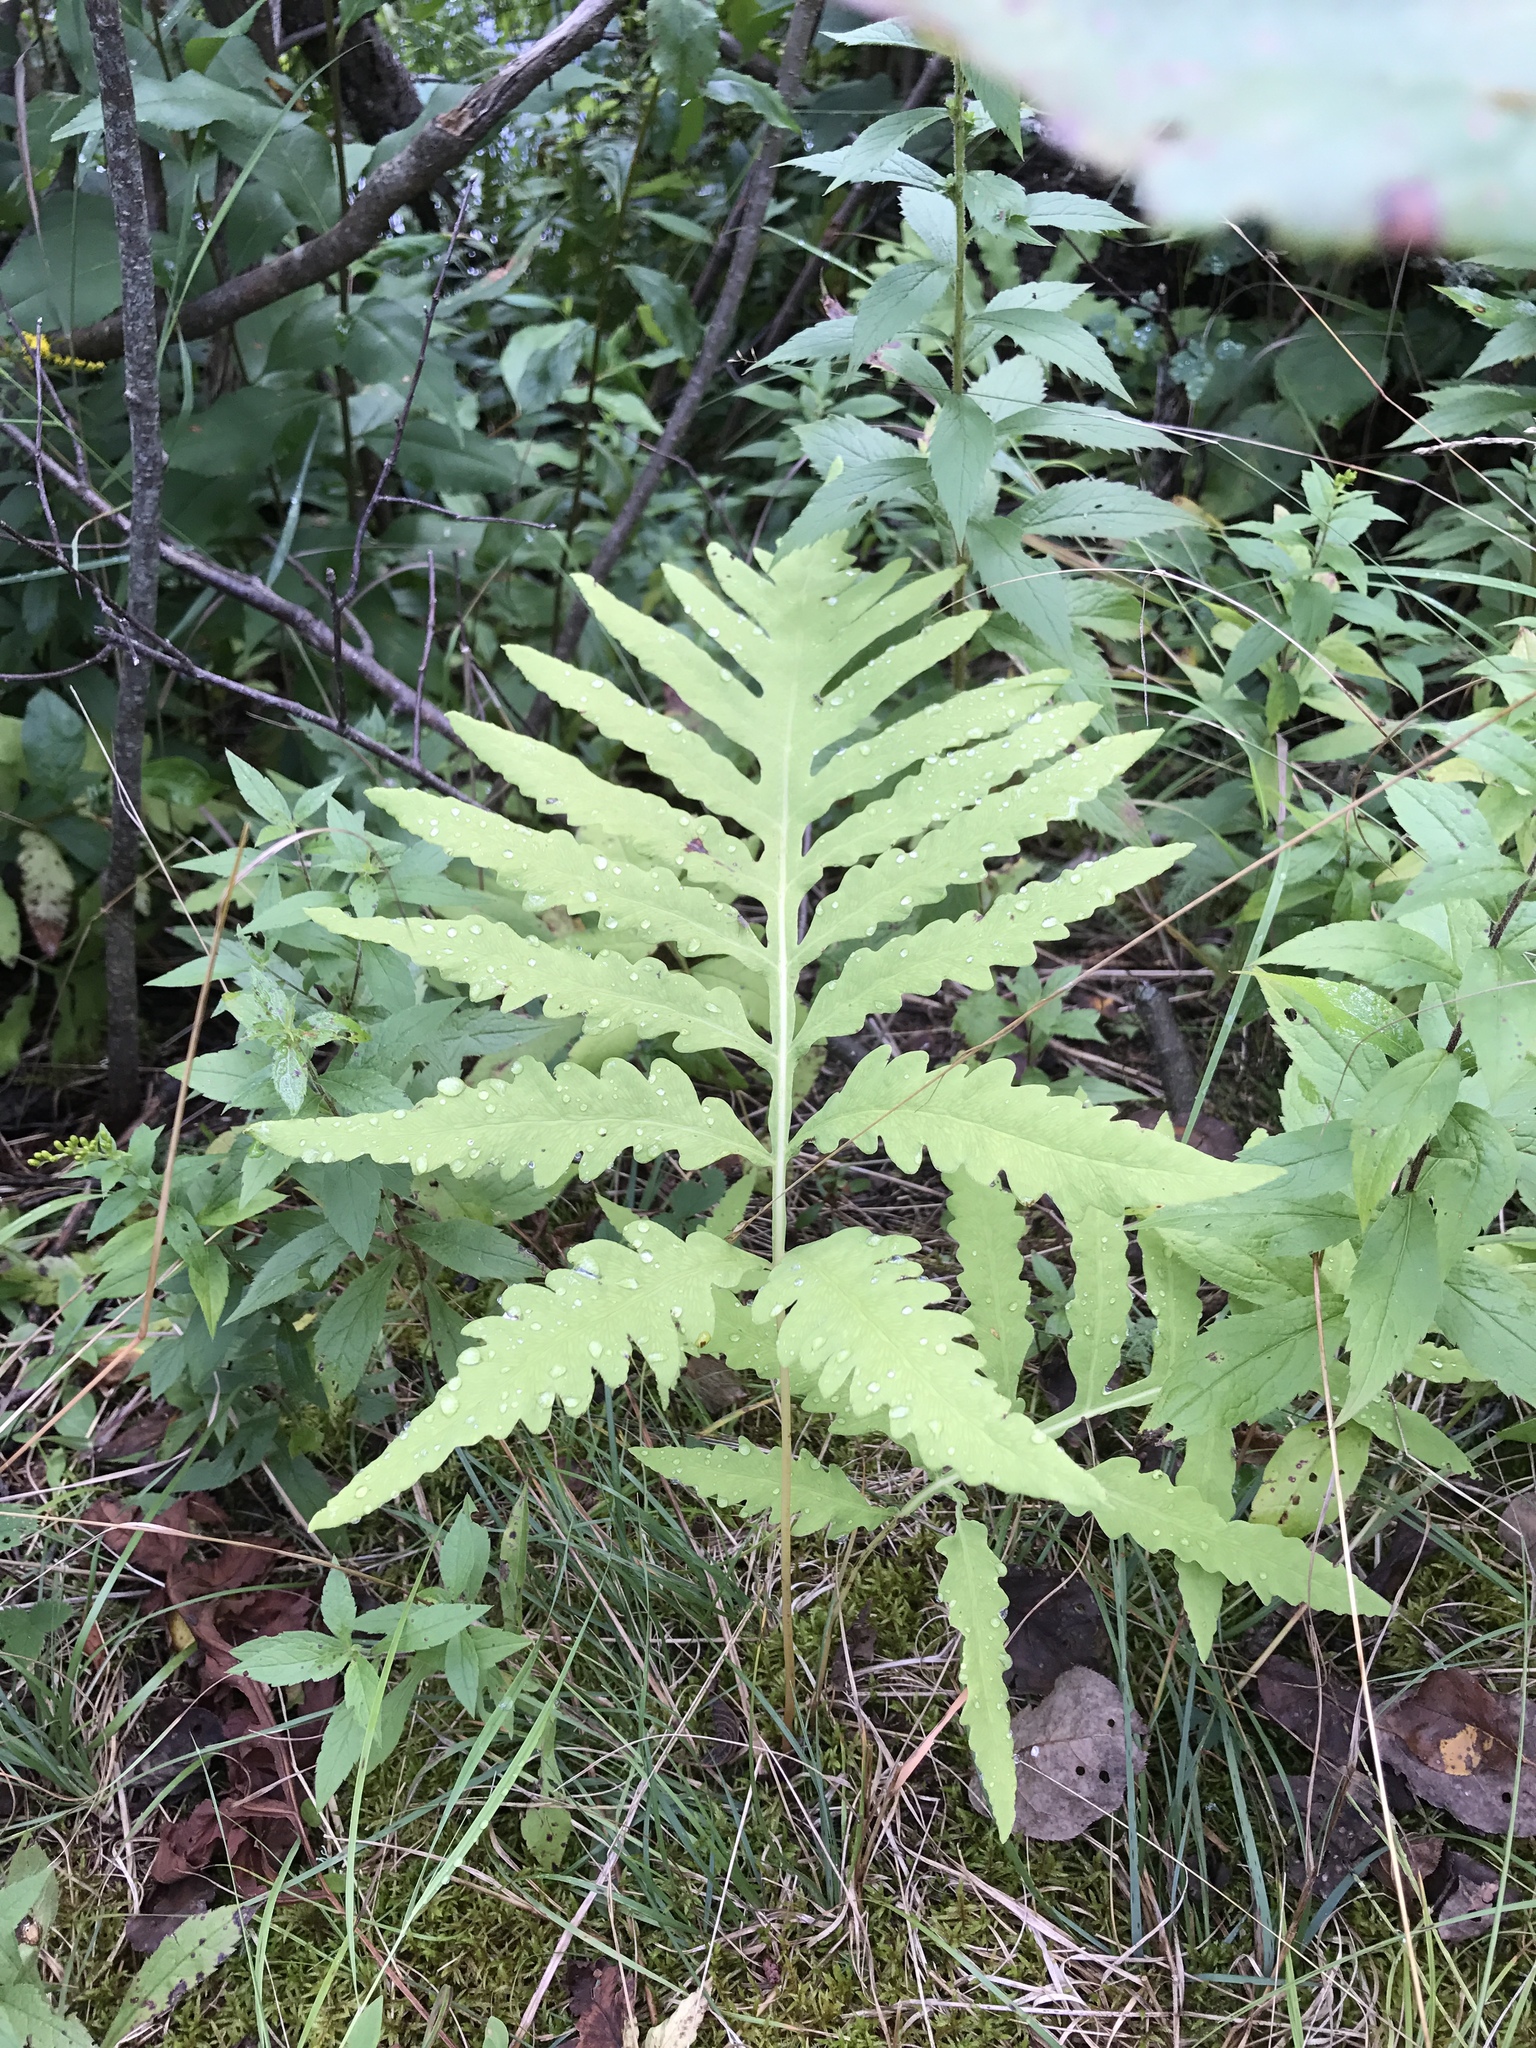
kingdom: Plantae
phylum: Tracheophyta
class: Polypodiopsida
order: Polypodiales
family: Onocleaceae
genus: Onoclea
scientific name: Onoclea sensibilis
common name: Sensitive fern
